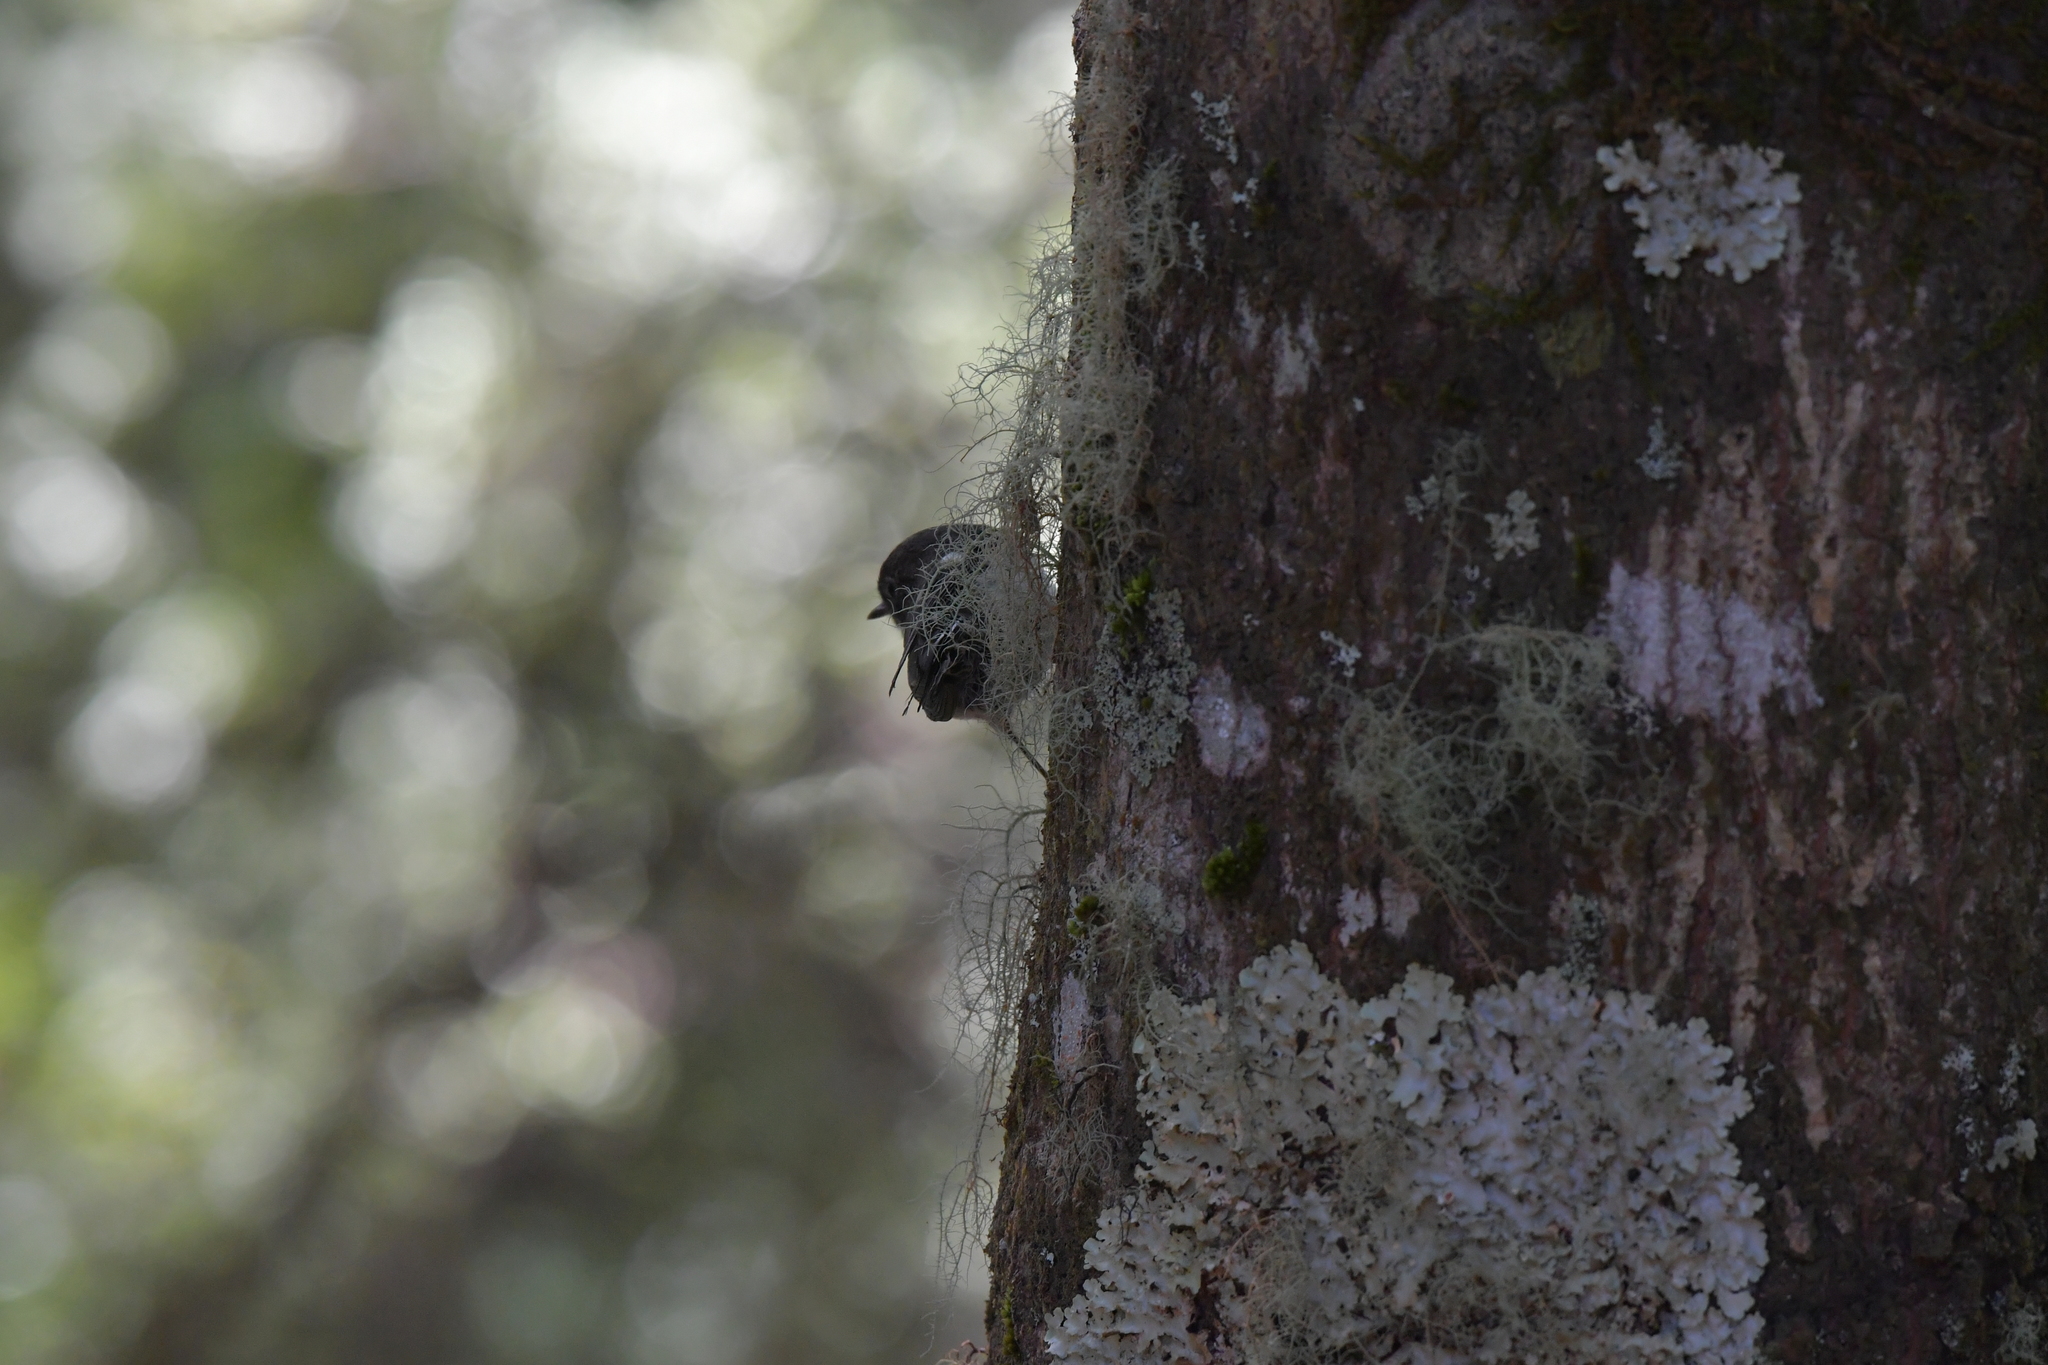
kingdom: Animalia
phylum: Chordata
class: Aves
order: Passeriformes
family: Petroicidae
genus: Petroica
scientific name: Petroica macrocephala
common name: Tomtit
